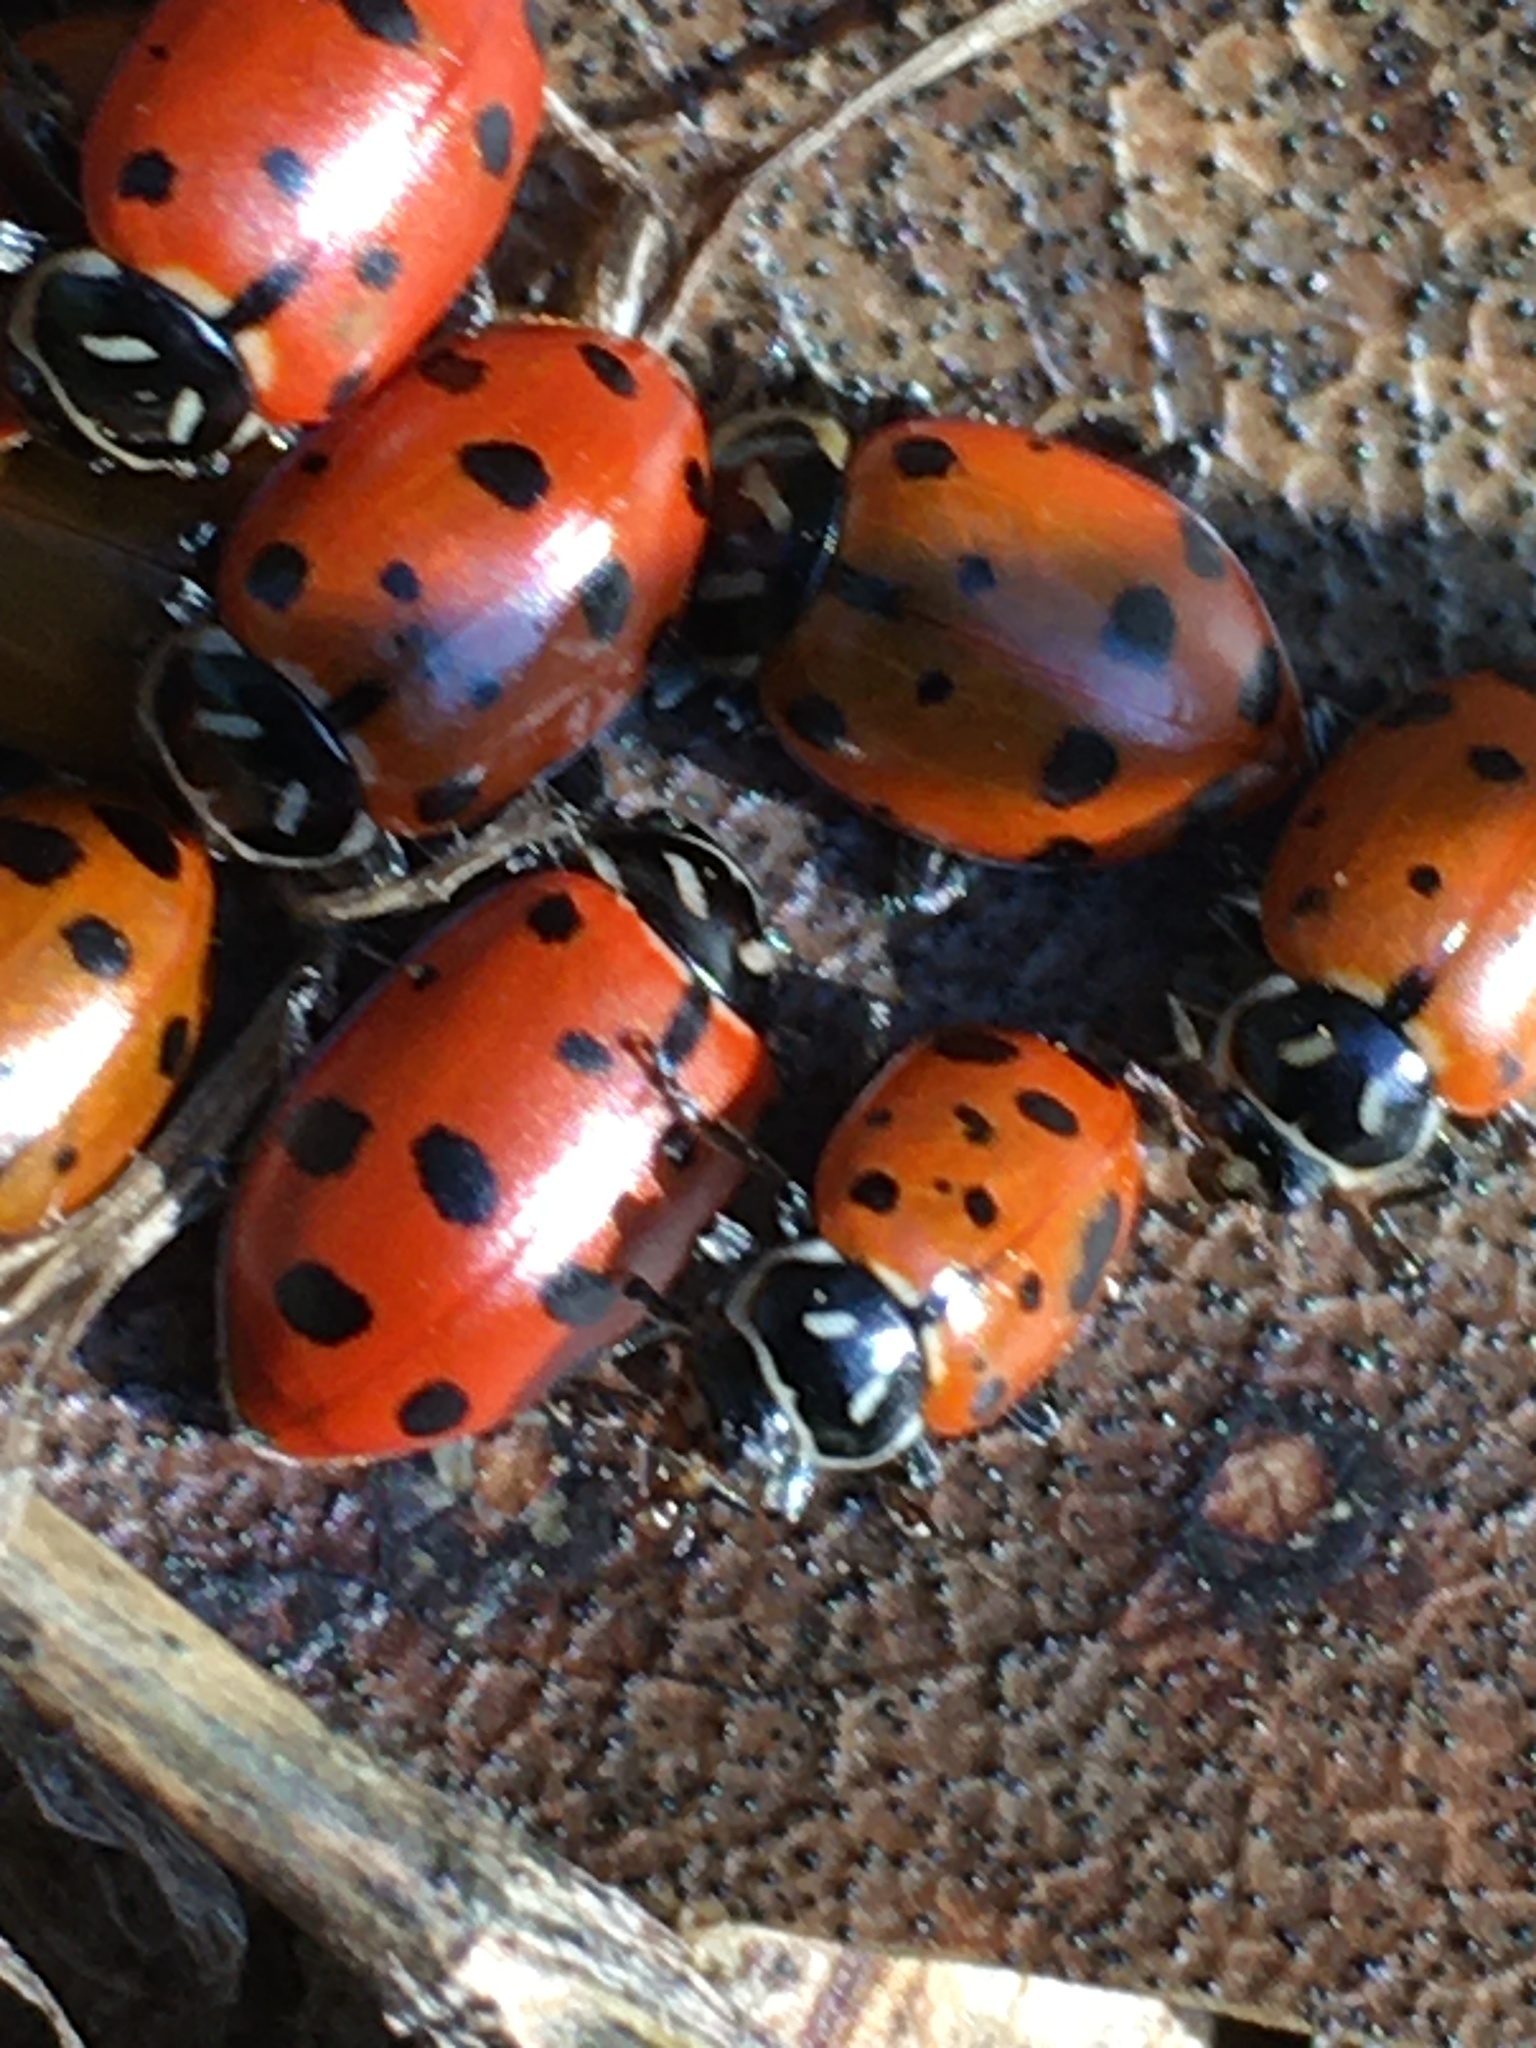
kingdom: Animalia
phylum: Arthropoda
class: Insecta
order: Coleoptera
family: Coccinellidae
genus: Hippodamia
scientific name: Hippodamia convergens
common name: Convergent lady beetle
